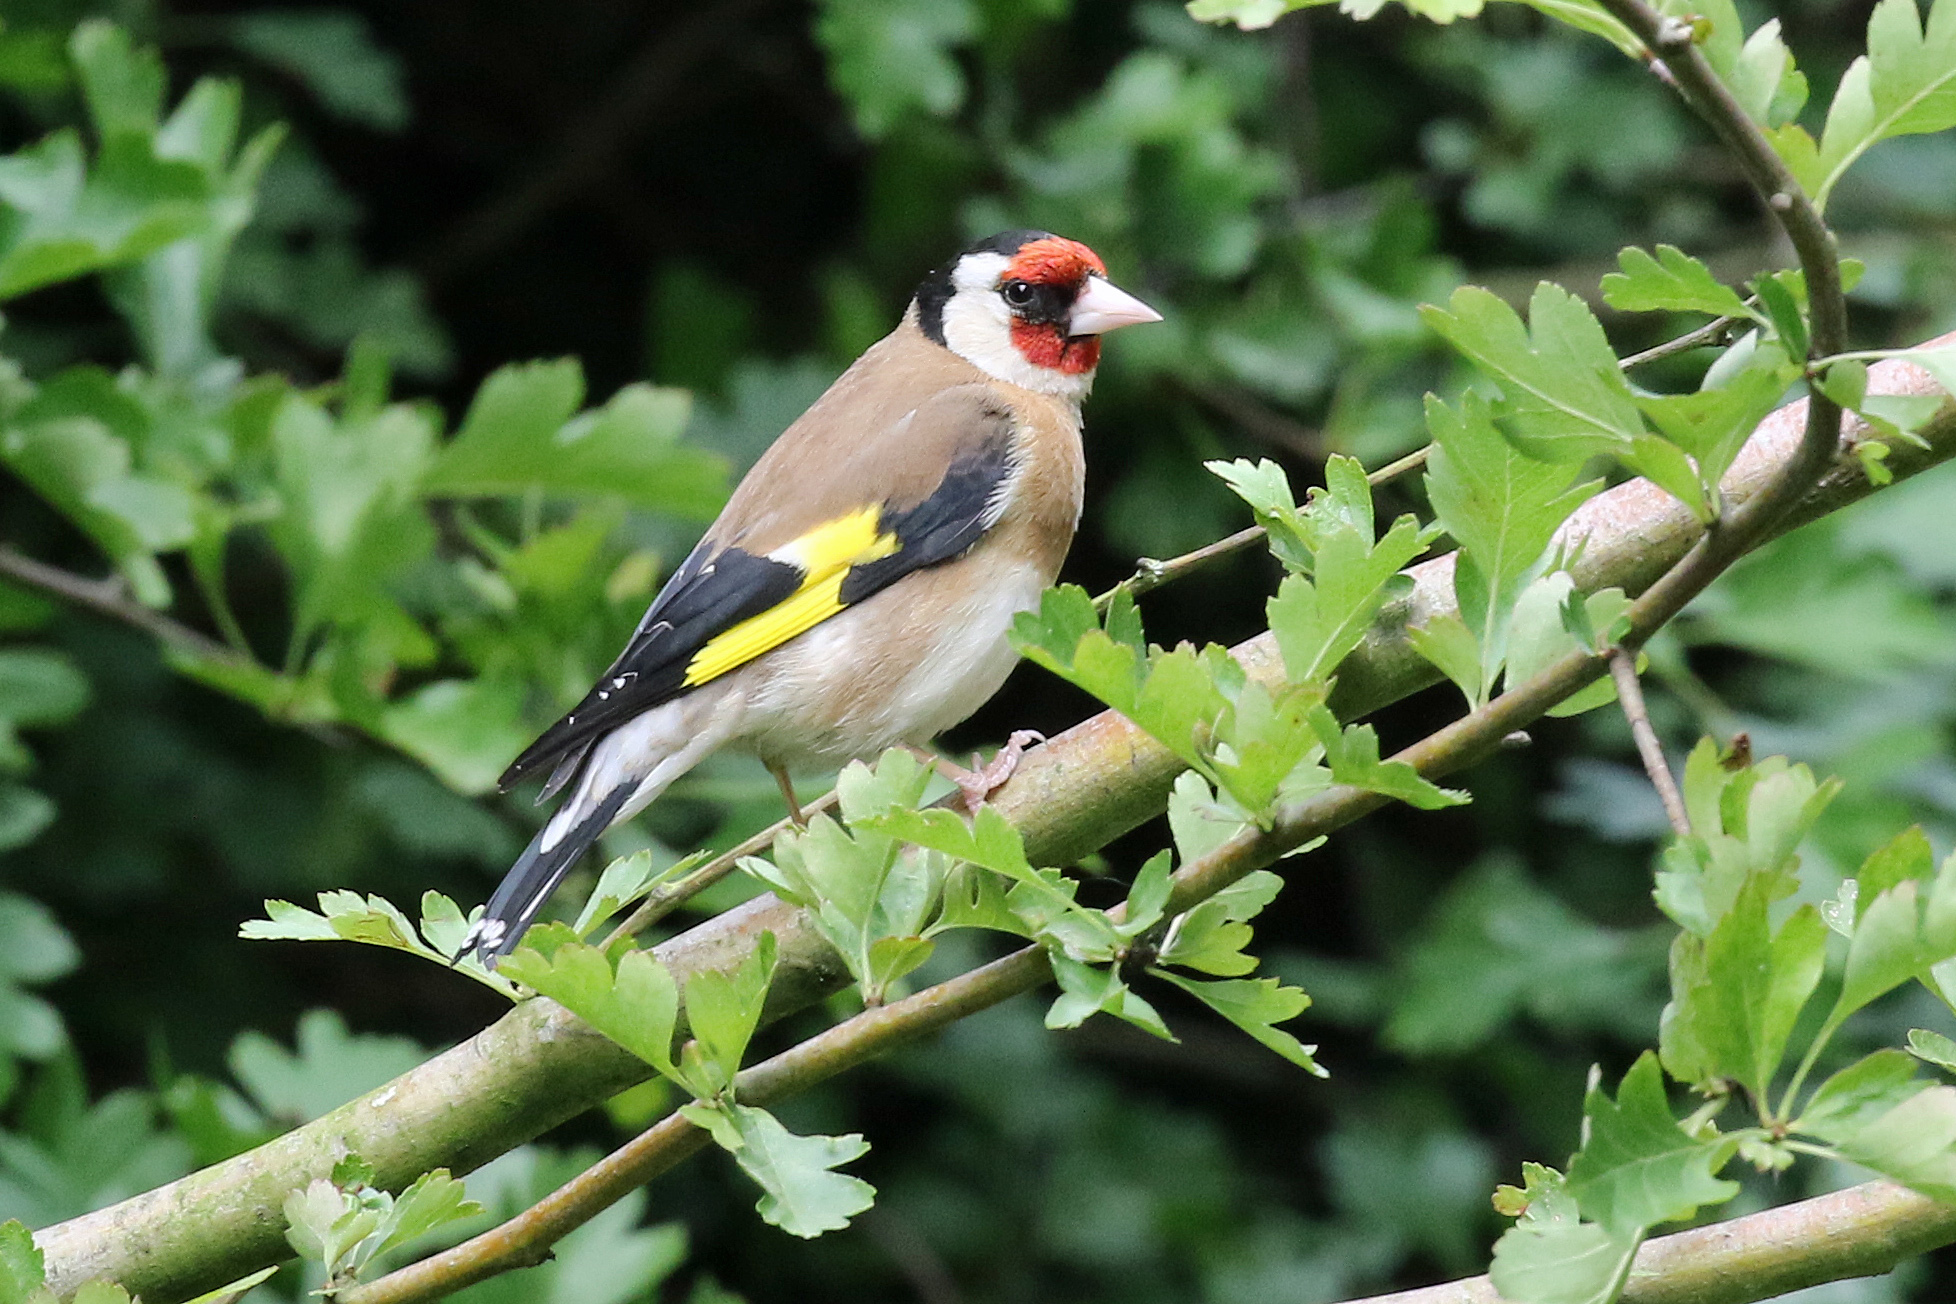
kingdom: Animalia
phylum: Chordata
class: Aves
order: Passeriformes
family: Fringillidae
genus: Carduelis
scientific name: Carduelis carduelis
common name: European goldfinch
